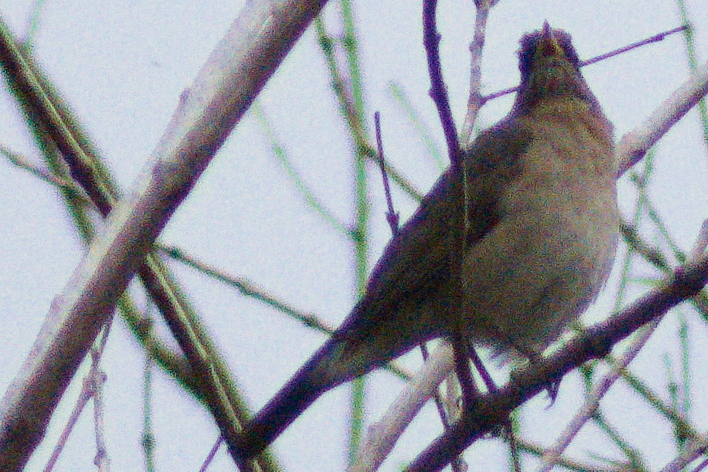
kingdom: Animalia
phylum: Chordata
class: Aves
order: Passeriformes
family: Turdidae
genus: Turdus
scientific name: Turdus amaurochalinus
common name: Creamy-bellied thrush
